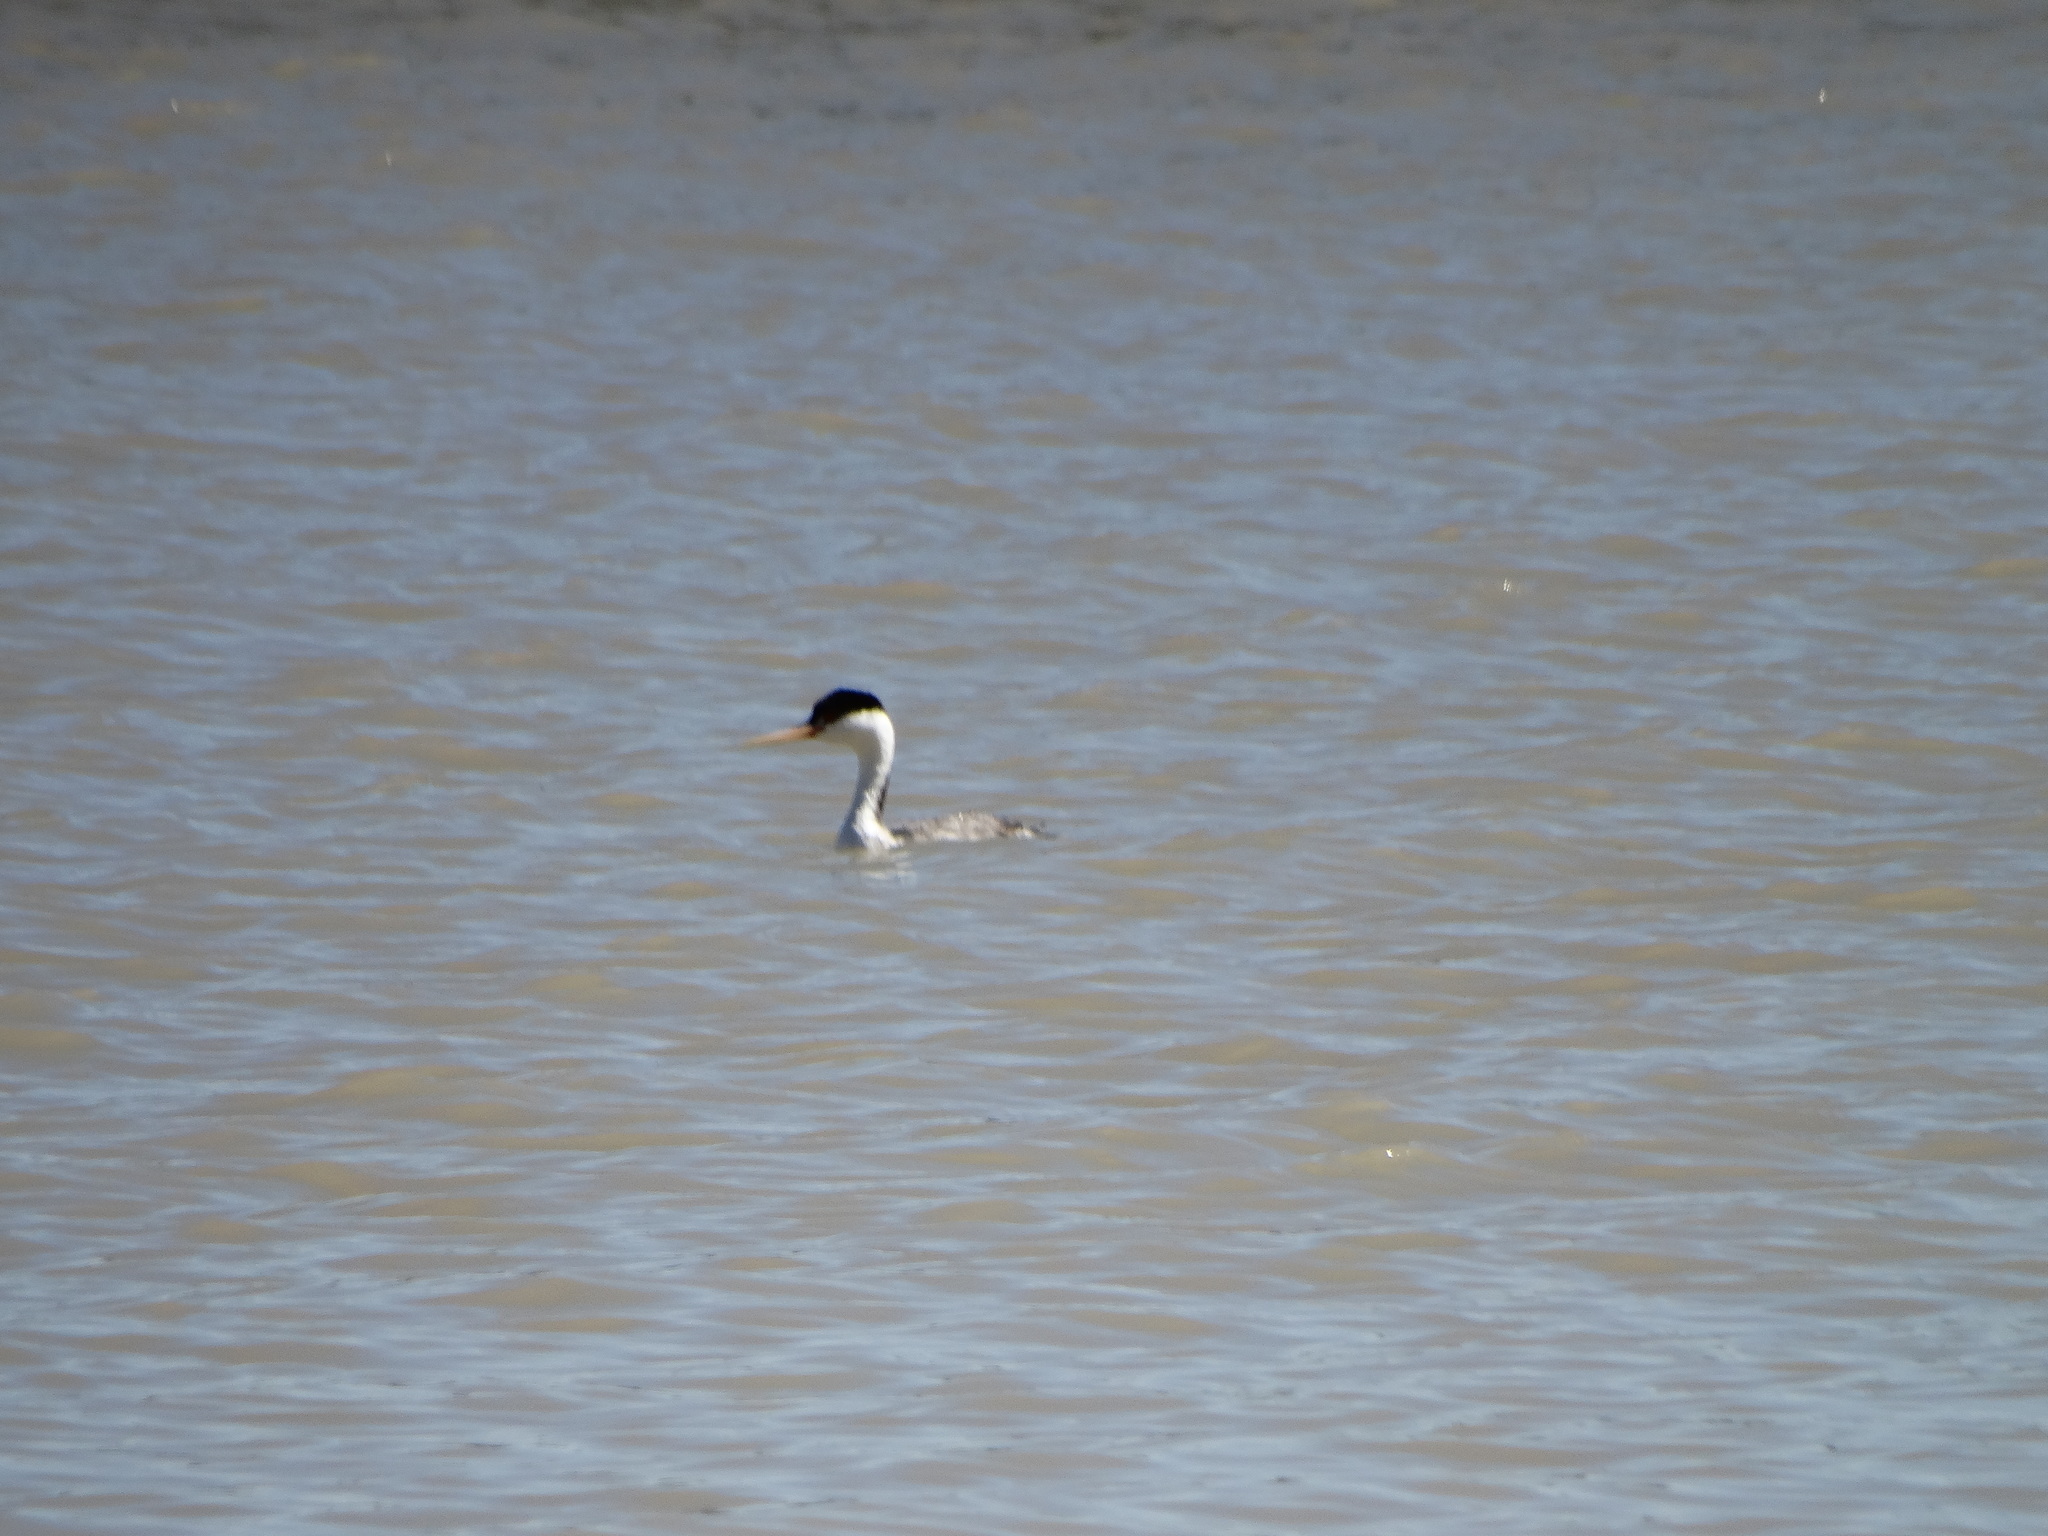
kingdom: Animalia
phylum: Chordata
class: Aves
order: Podicipediformes
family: Podicipedidae
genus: Aechmophorus
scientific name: Aechmophorus occidentalis
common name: Western grebe
